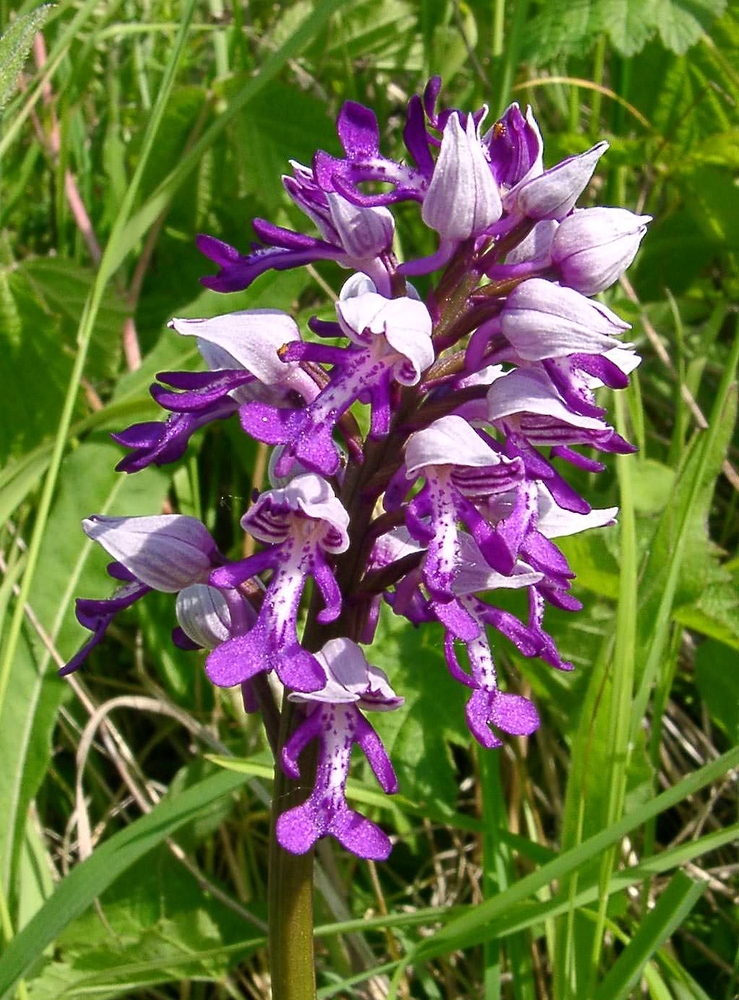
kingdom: Plantae
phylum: Tracheophyta
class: Liliopsida
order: Asparagales
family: Orchidaceae
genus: Orchis
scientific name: Orchis militaris
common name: Military orchid
